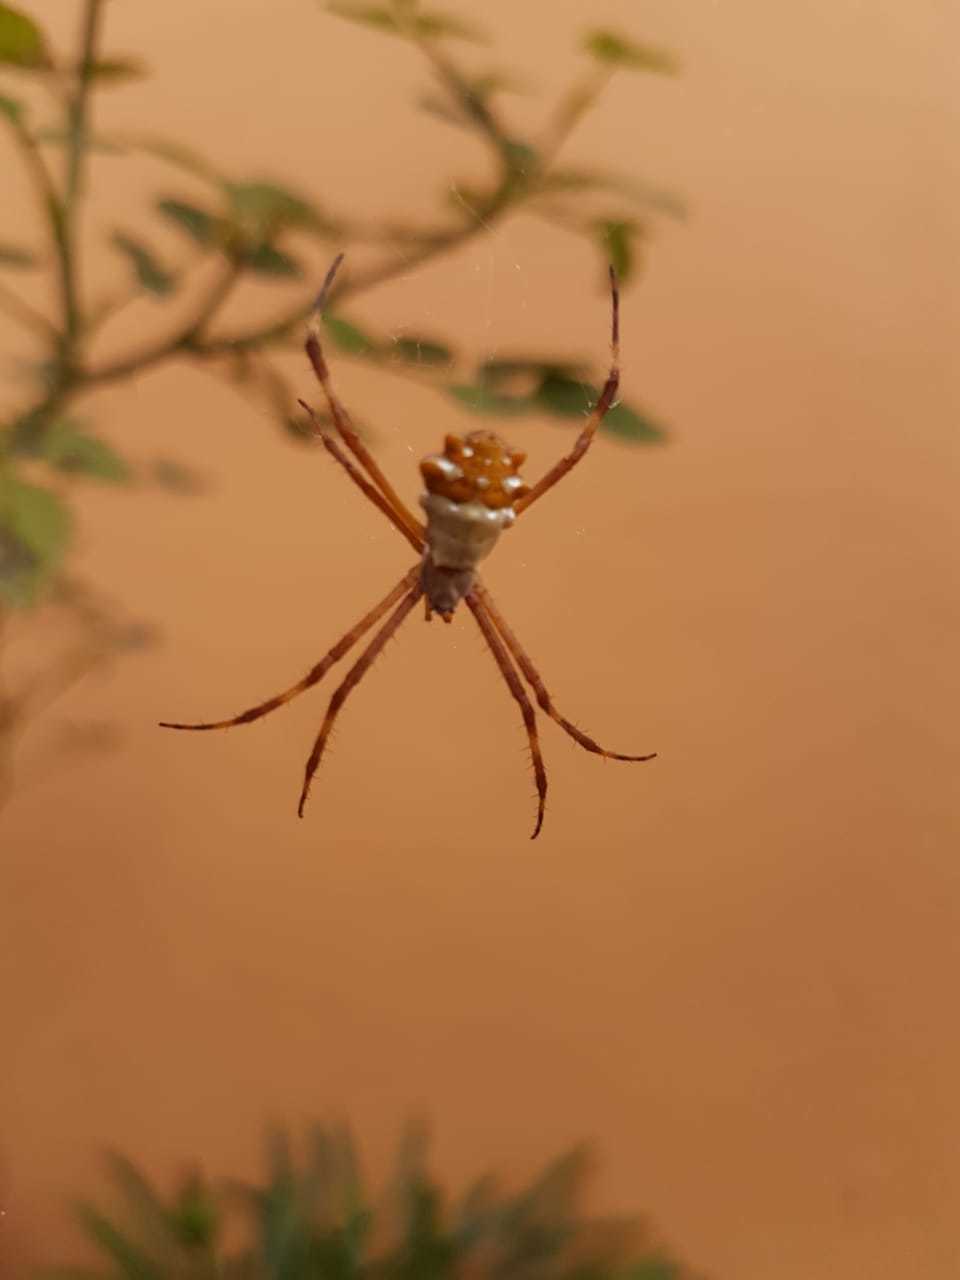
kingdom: Animalia
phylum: Arthropoda
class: Arachnida
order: Araneae
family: Araneidae
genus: Argiope
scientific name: Argiope argentata
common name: Orb weavers
